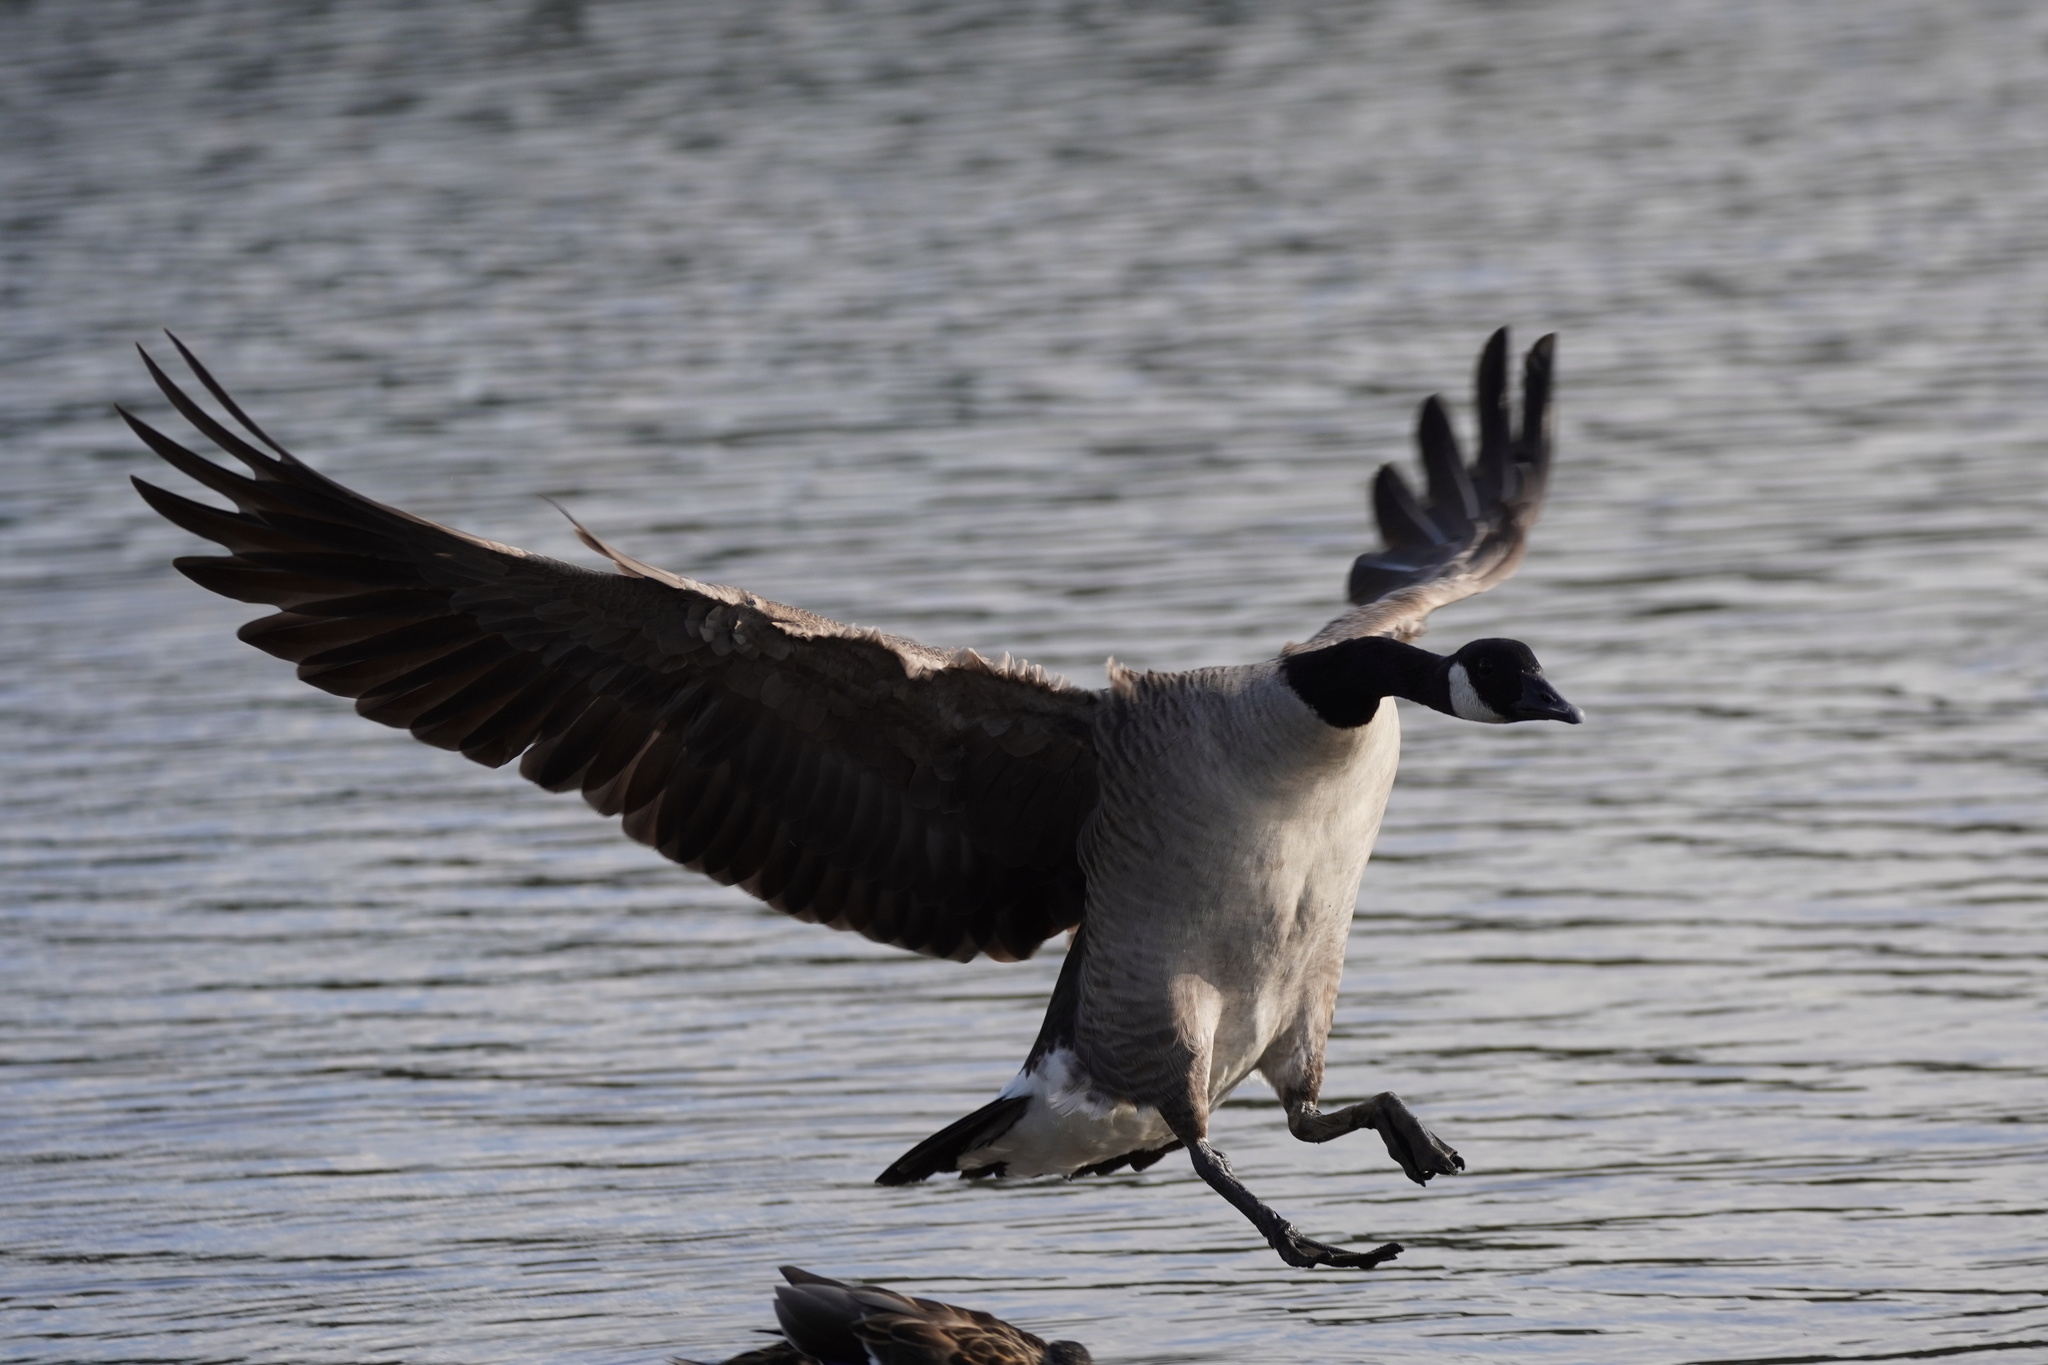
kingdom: Animalia
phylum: Chordata
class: Aves
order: Anseriformes
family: Anatidae
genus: Branta
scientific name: Branta canadensis
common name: Canada goose
